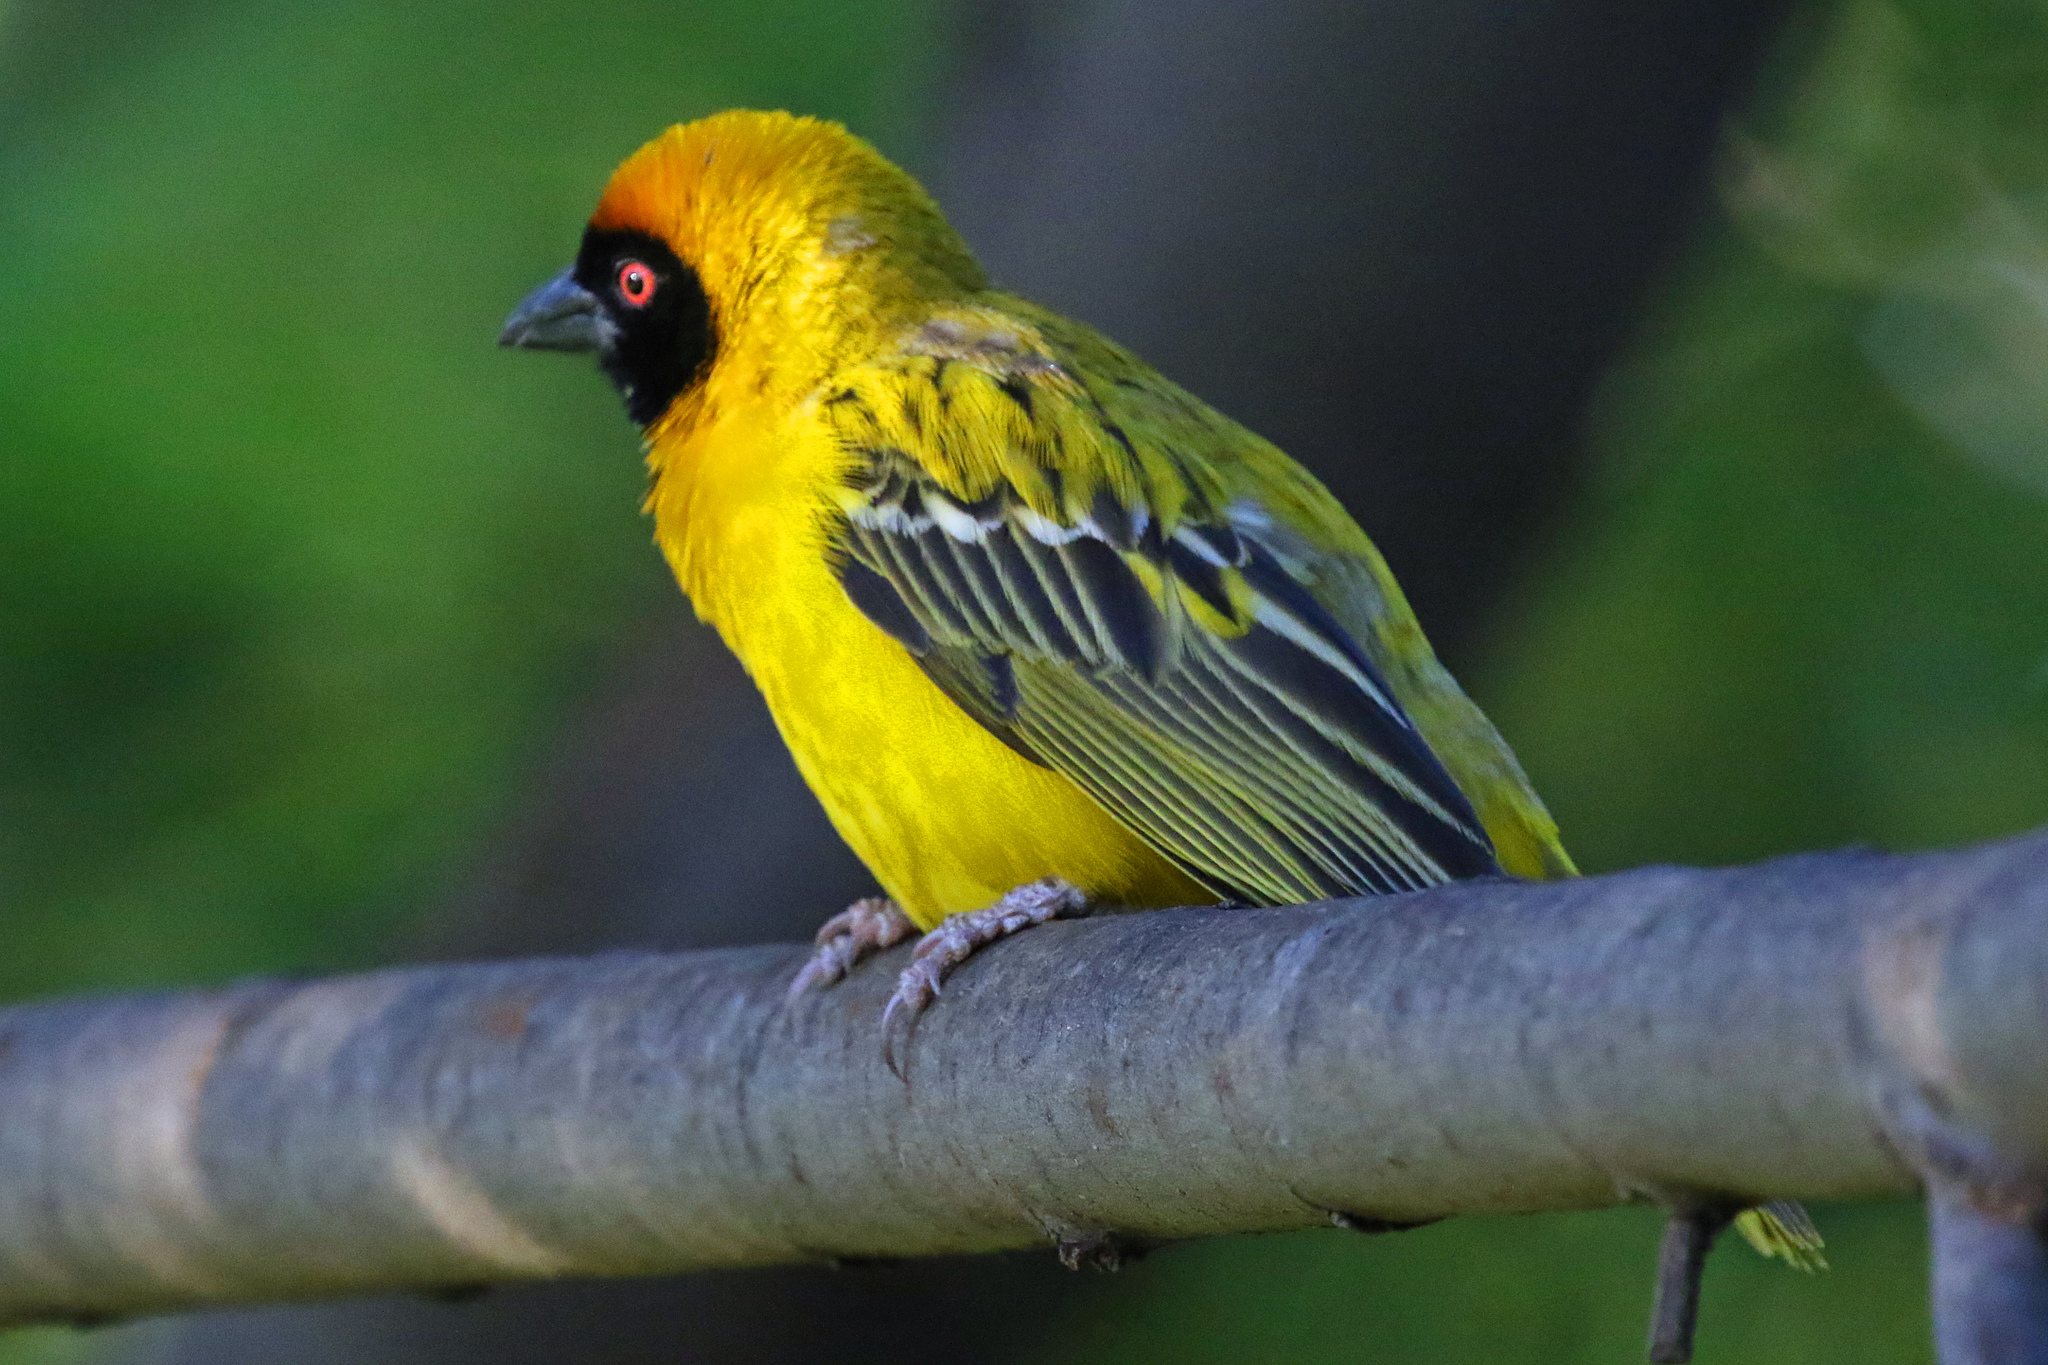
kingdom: Animalia
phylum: Chordata
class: Aves
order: Passeriformes
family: Ploceidae
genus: Ploceus
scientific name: Ploceus velatus
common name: Southern masked weaver
